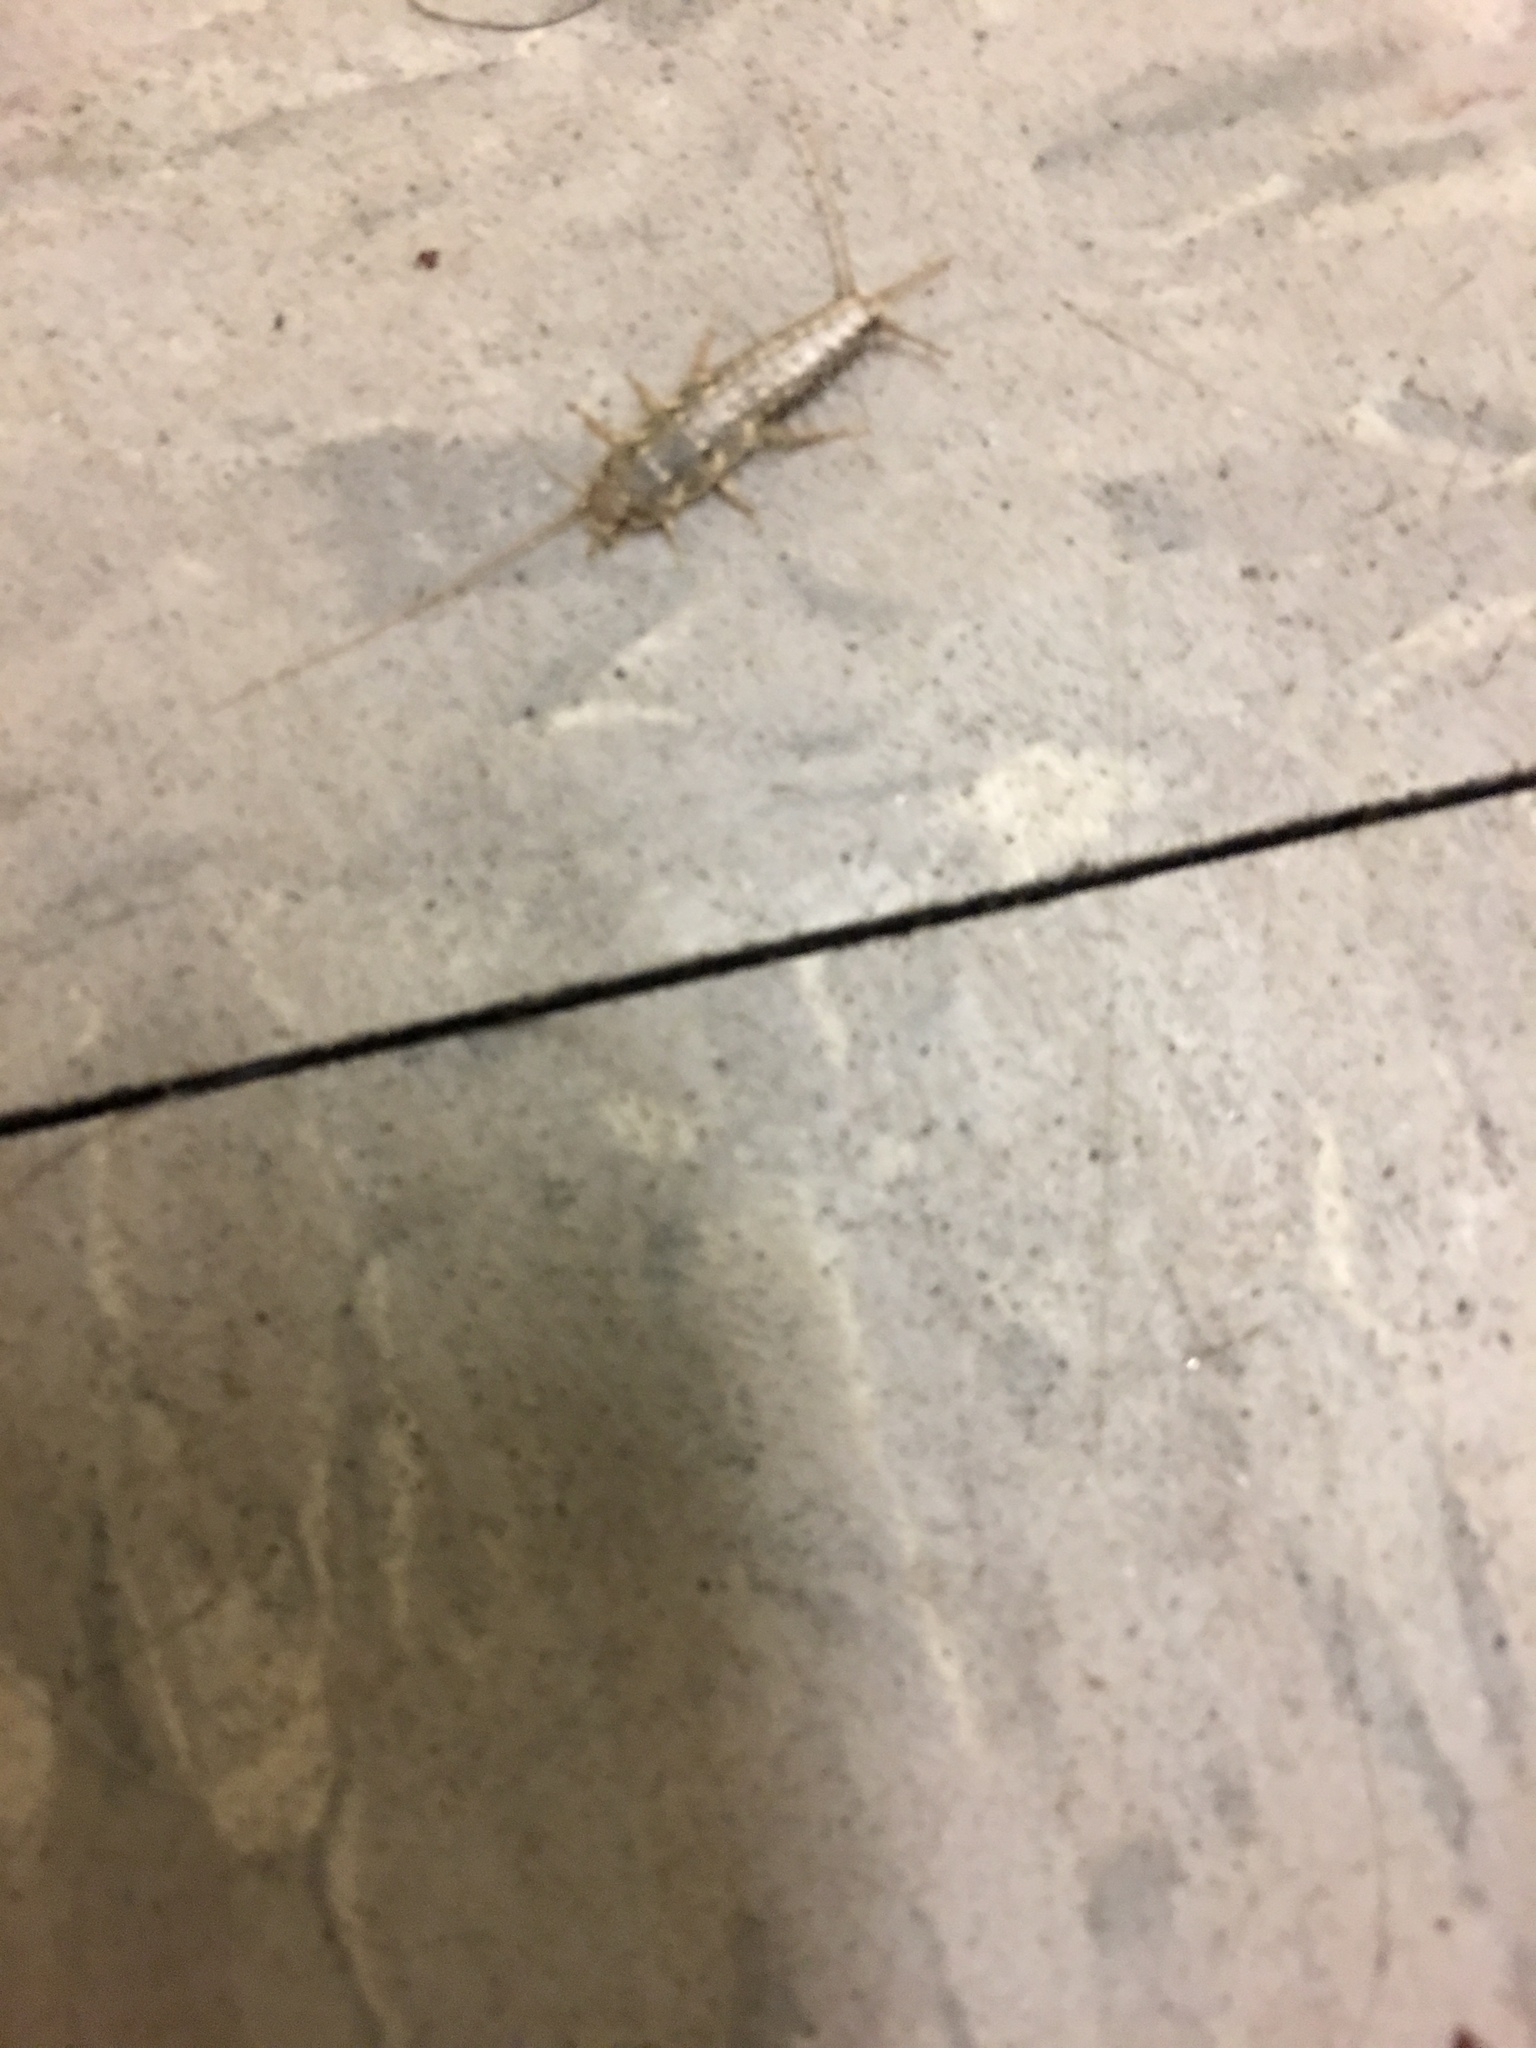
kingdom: Animalia
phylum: Arthropoda
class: Insecta
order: Zygentoma
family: Lepismatidae
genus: Ctenolepisma
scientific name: Ctenolepisma longicaudatum
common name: Silverfish
